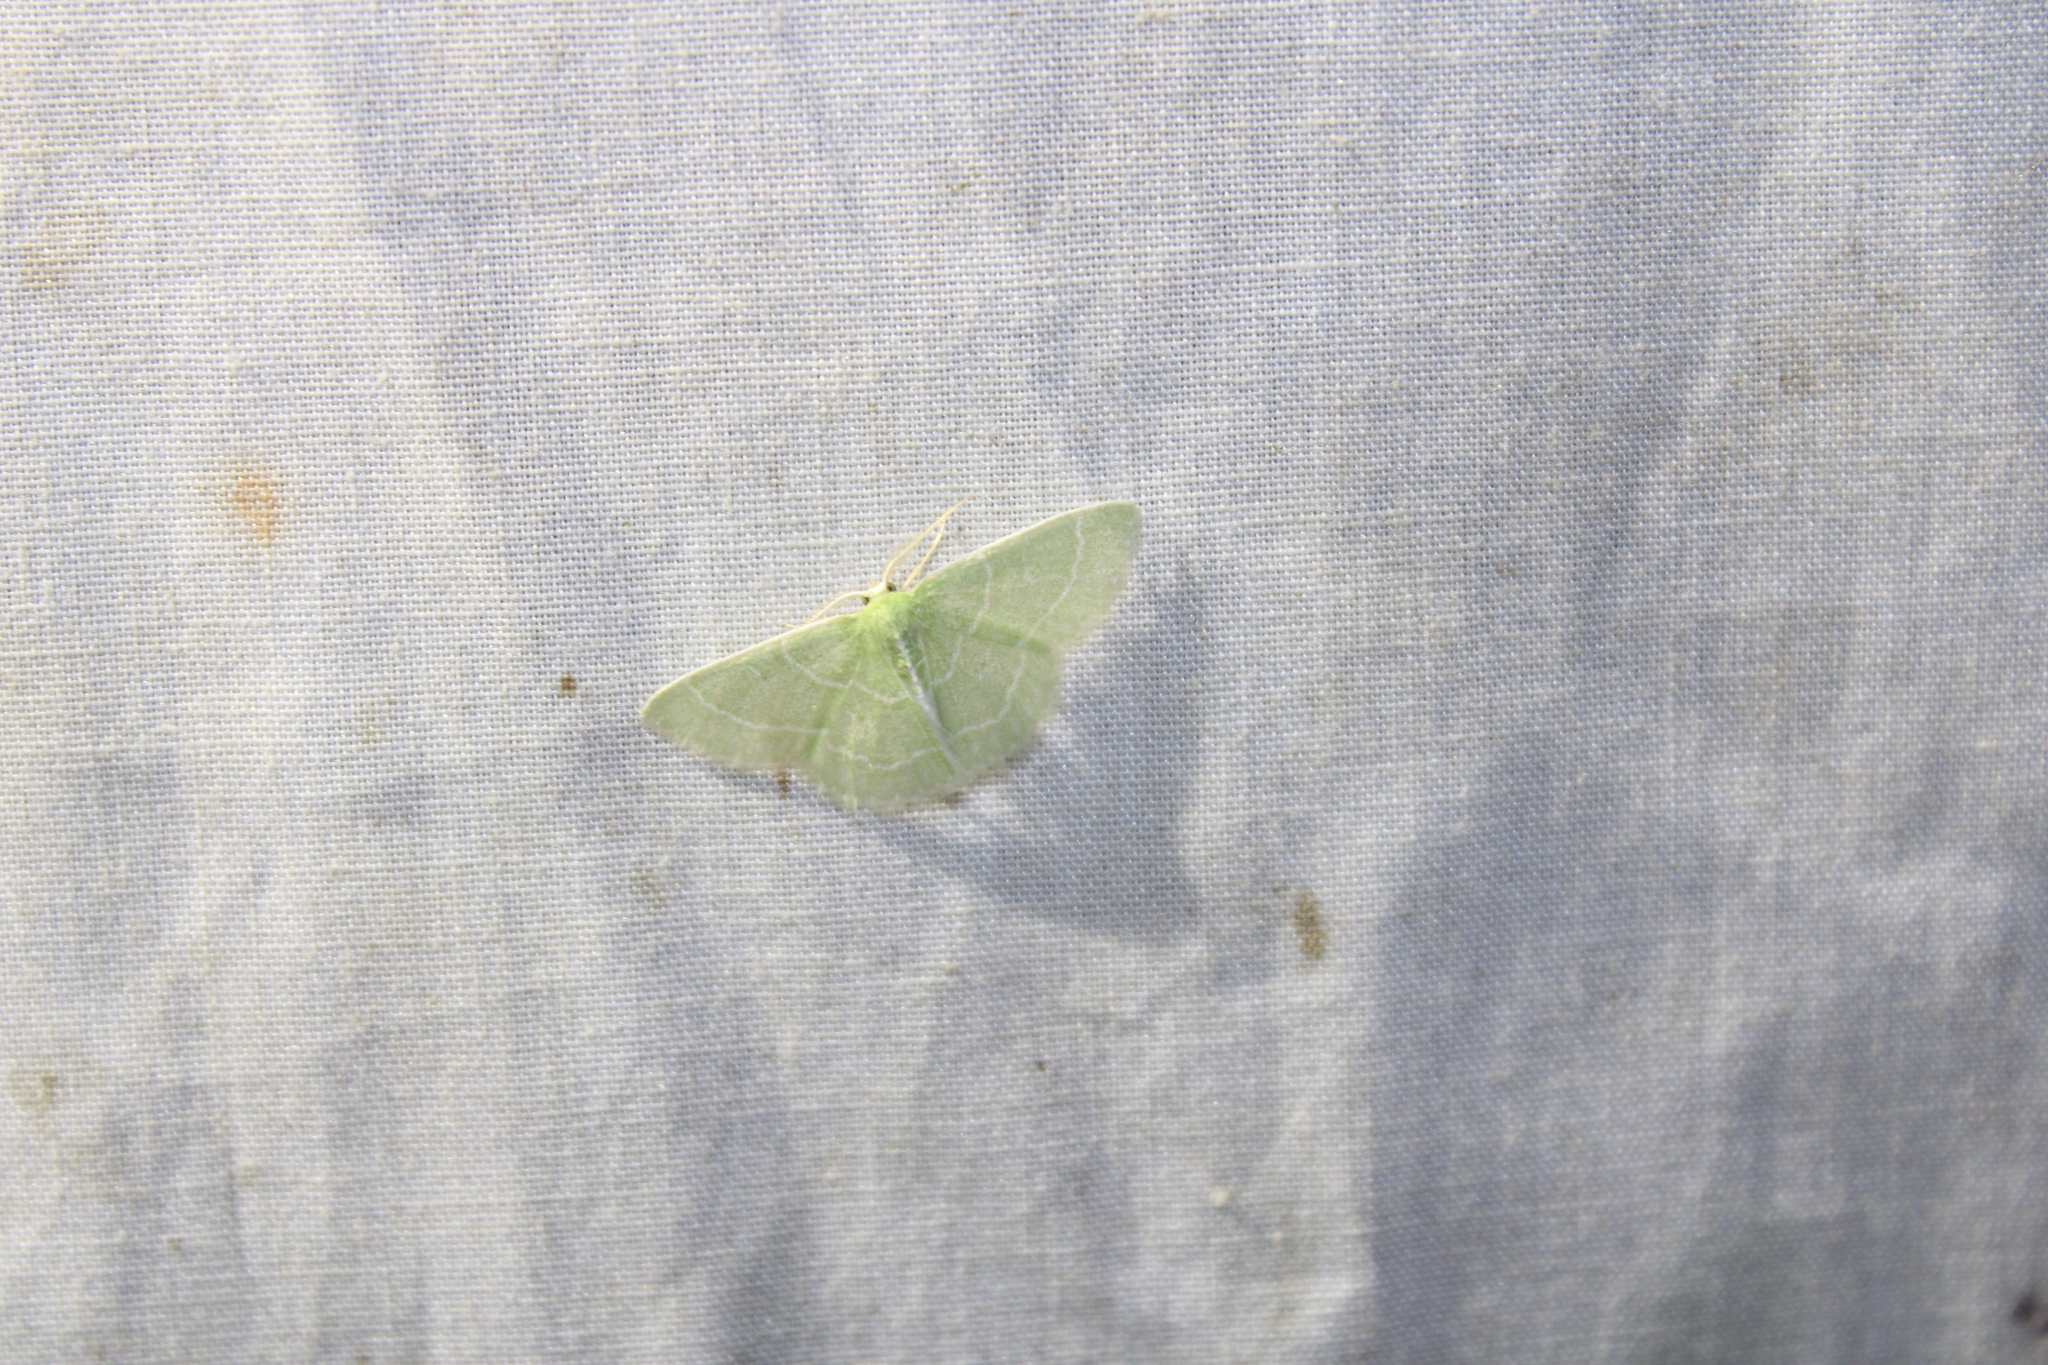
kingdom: Animalia
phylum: Arthropoda
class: Insecta
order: Lepidoptera
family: Geometridae
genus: Synchlora
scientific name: Synchlora aerata
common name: Wavy-lined emerald
